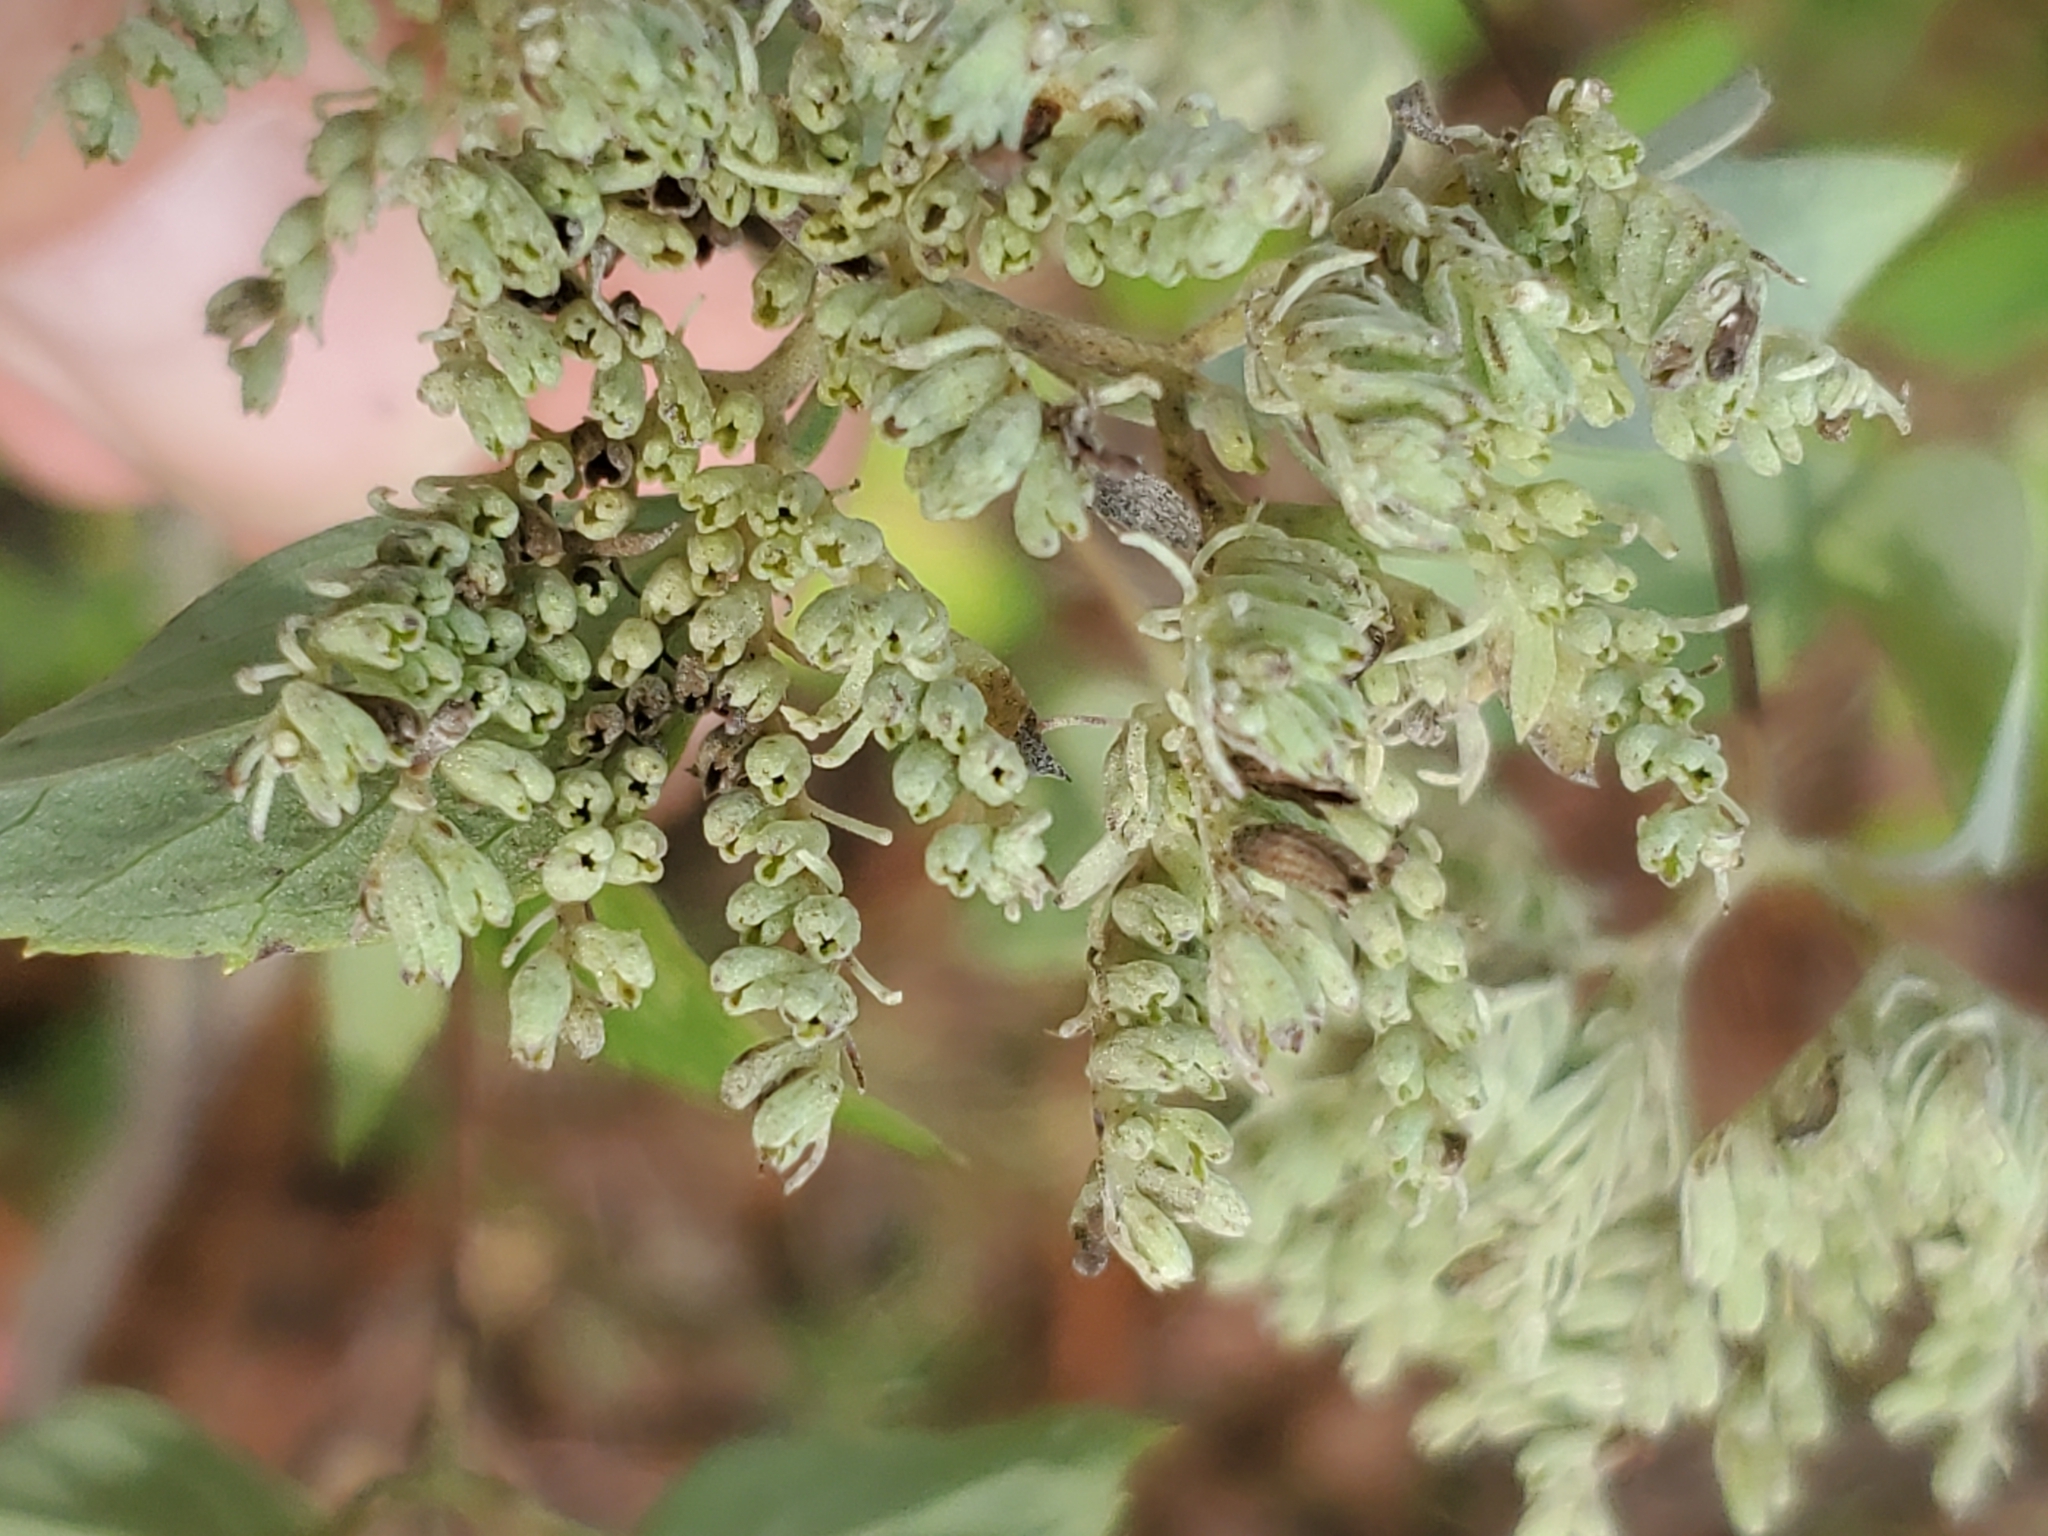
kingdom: Plantae
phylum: Tracheophyta
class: Magnoliopsida
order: Lamiales
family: Lamiaceae
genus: Pycnanthemum
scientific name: Pycnanthemum albescens
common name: White-leaf mountain-mint
